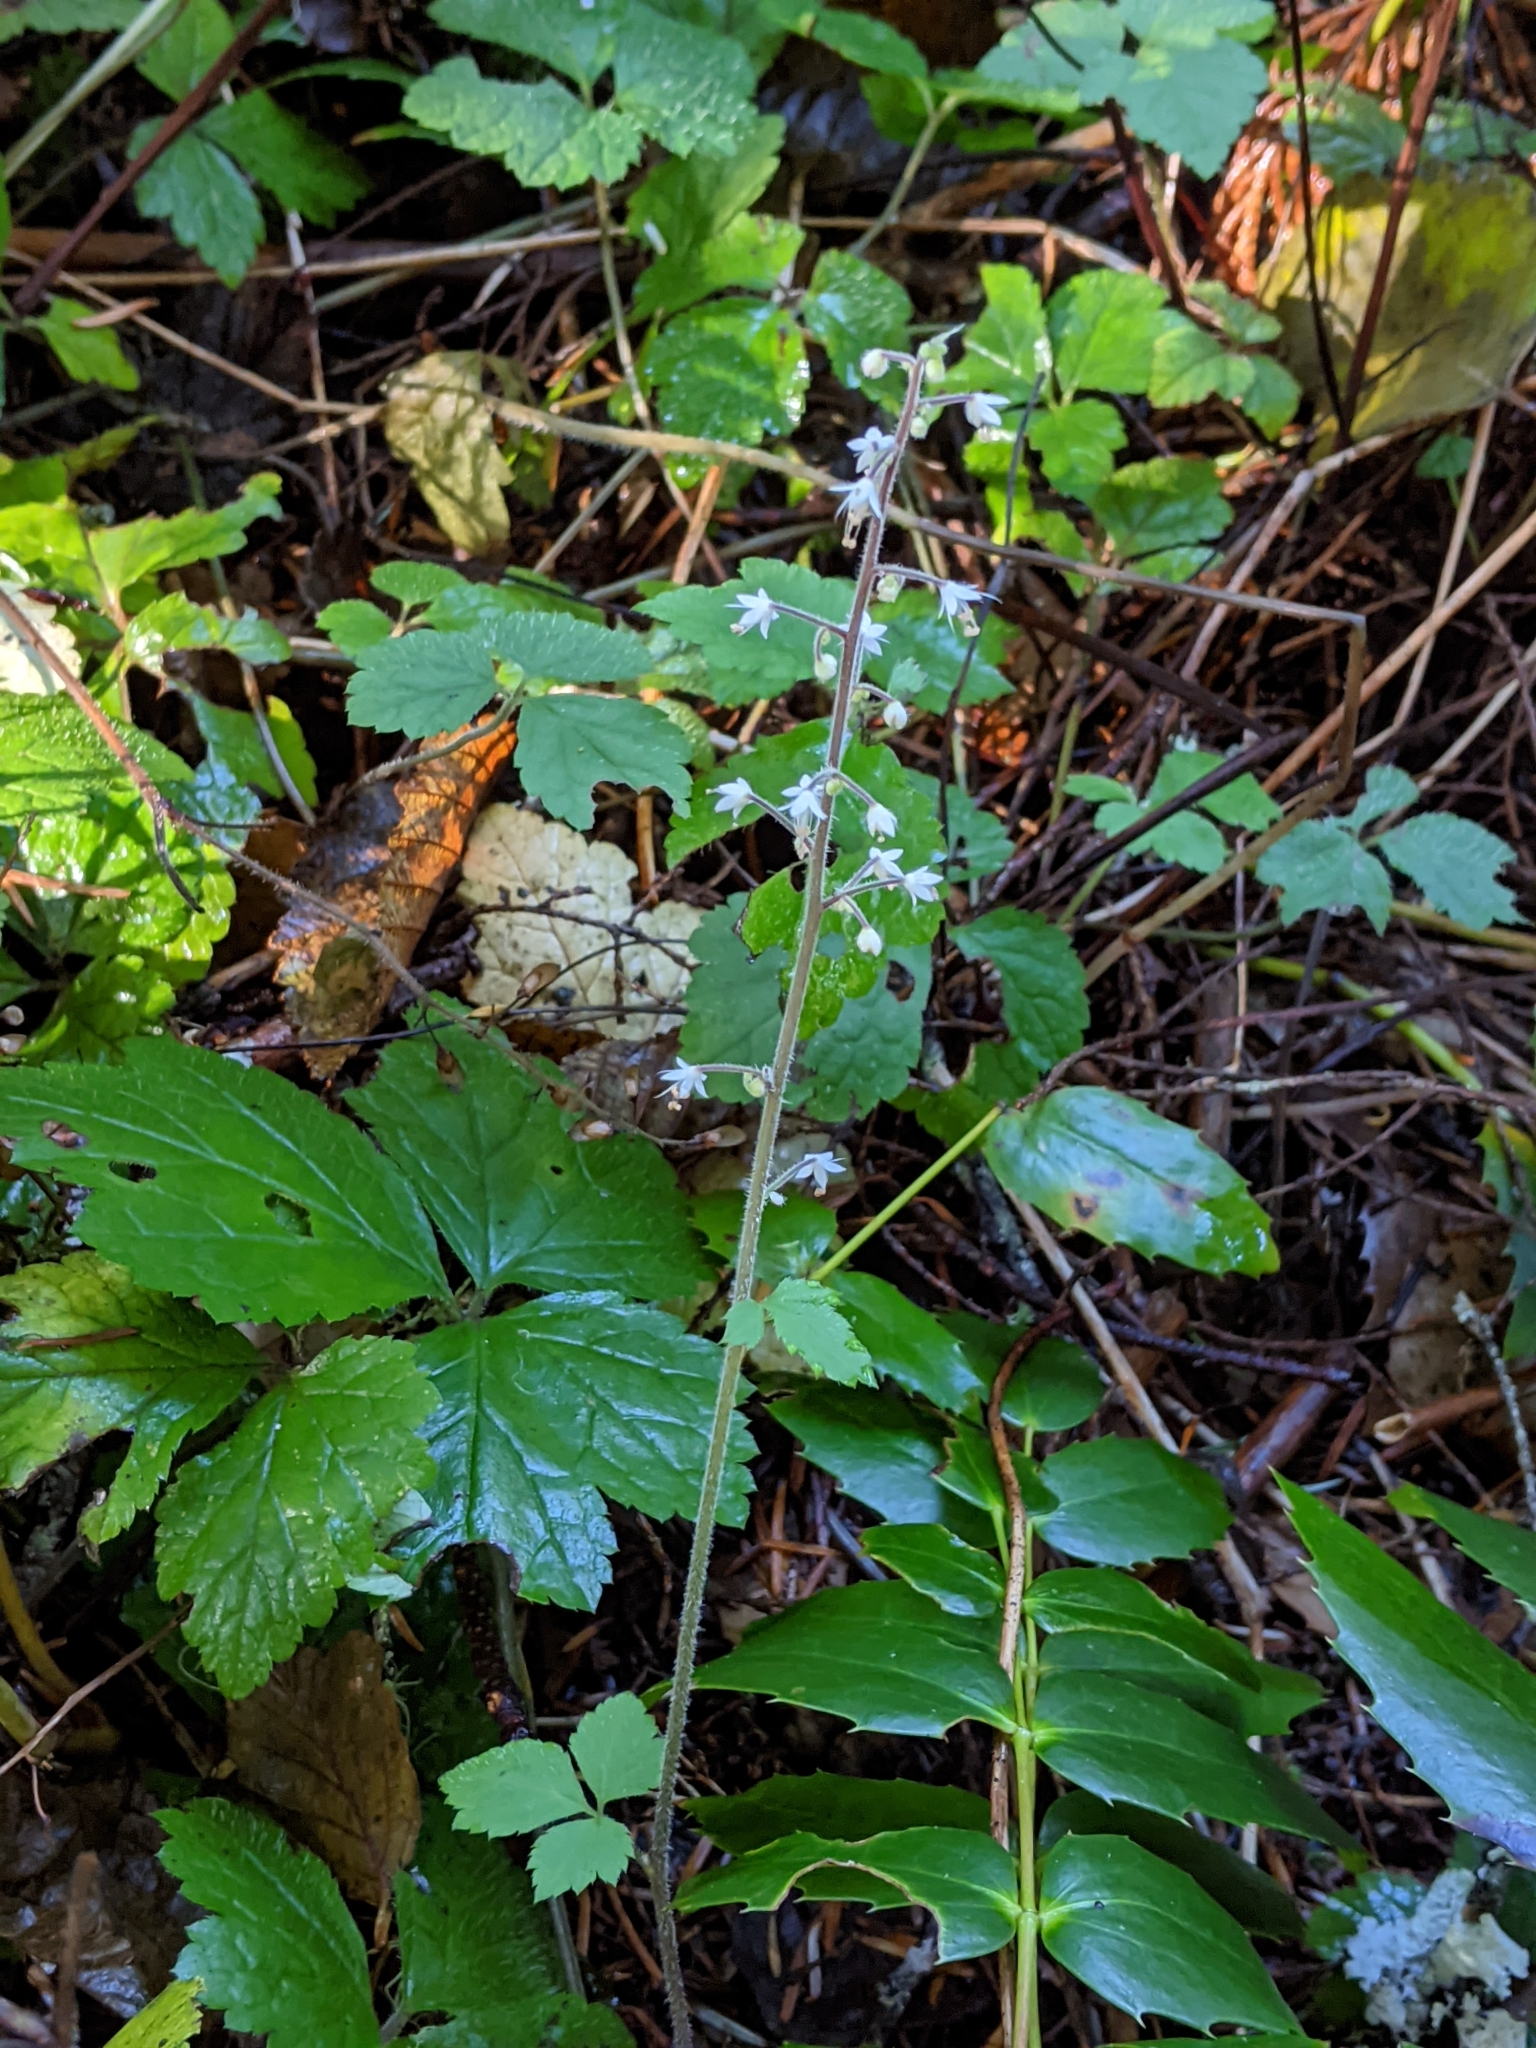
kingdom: Plantae
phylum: Tracheophyta
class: Magnoliopsida
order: Saxifragales
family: Saxifragaceae
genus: Tiarella
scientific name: Tiarella trifoliata
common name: Sugar-scoop
